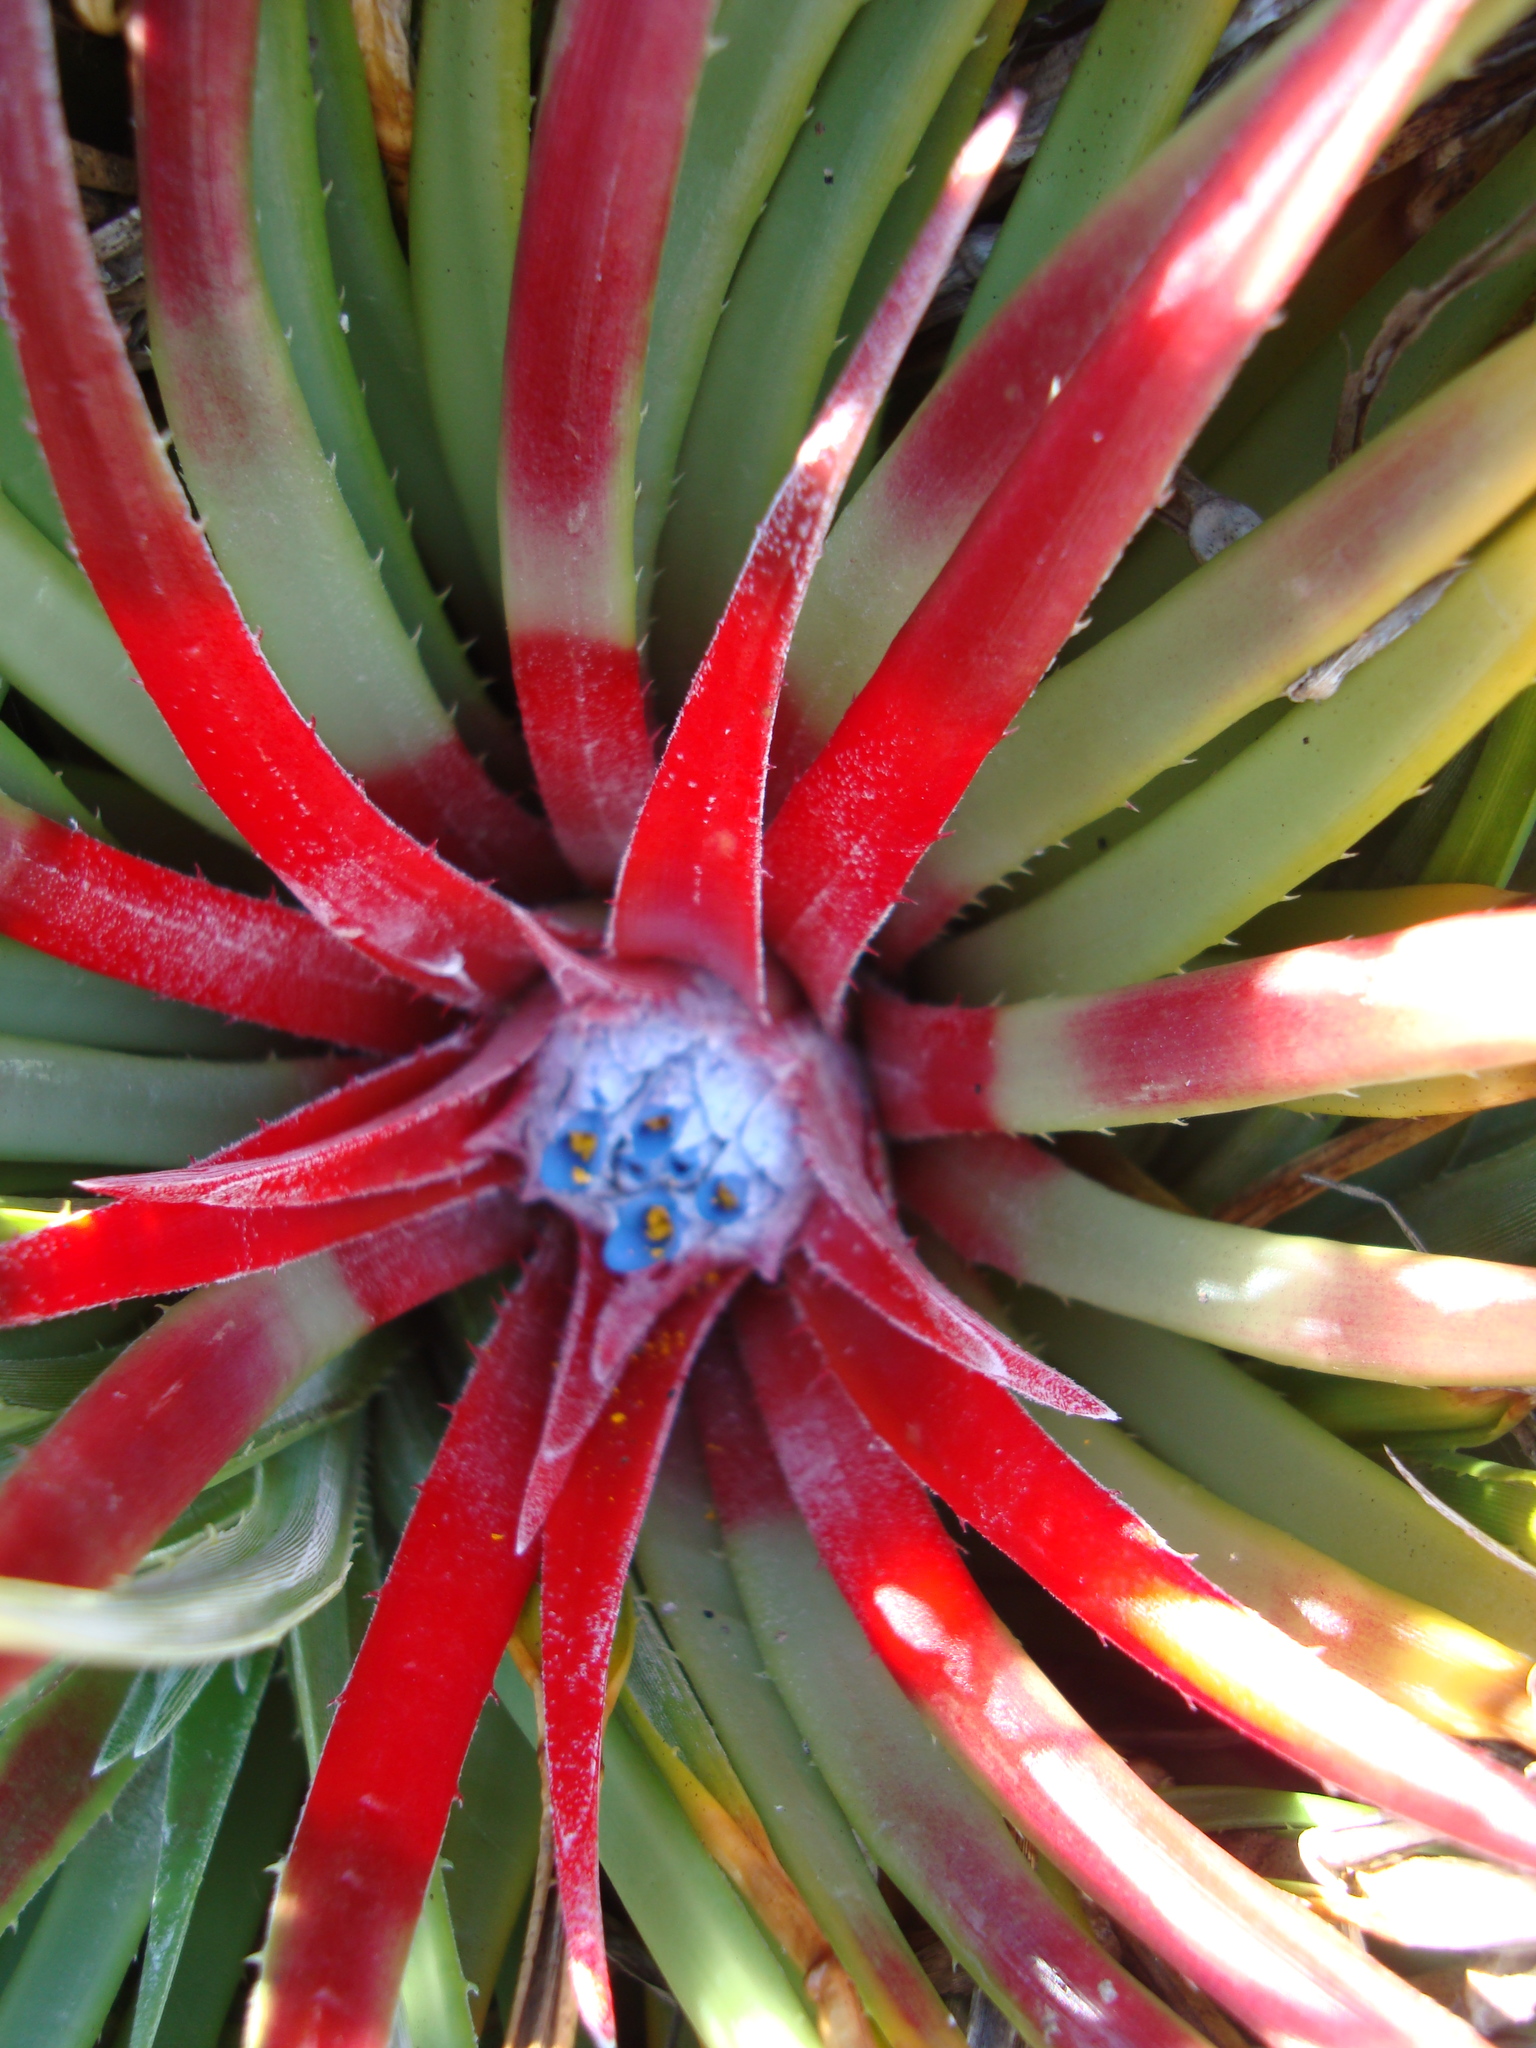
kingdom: Plantae
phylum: Tracheophyta
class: Liliopsida
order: Poales
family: Bromeliaceae
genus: Fascicularia
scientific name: Fascicularia bicolor
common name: Rhodostachys
